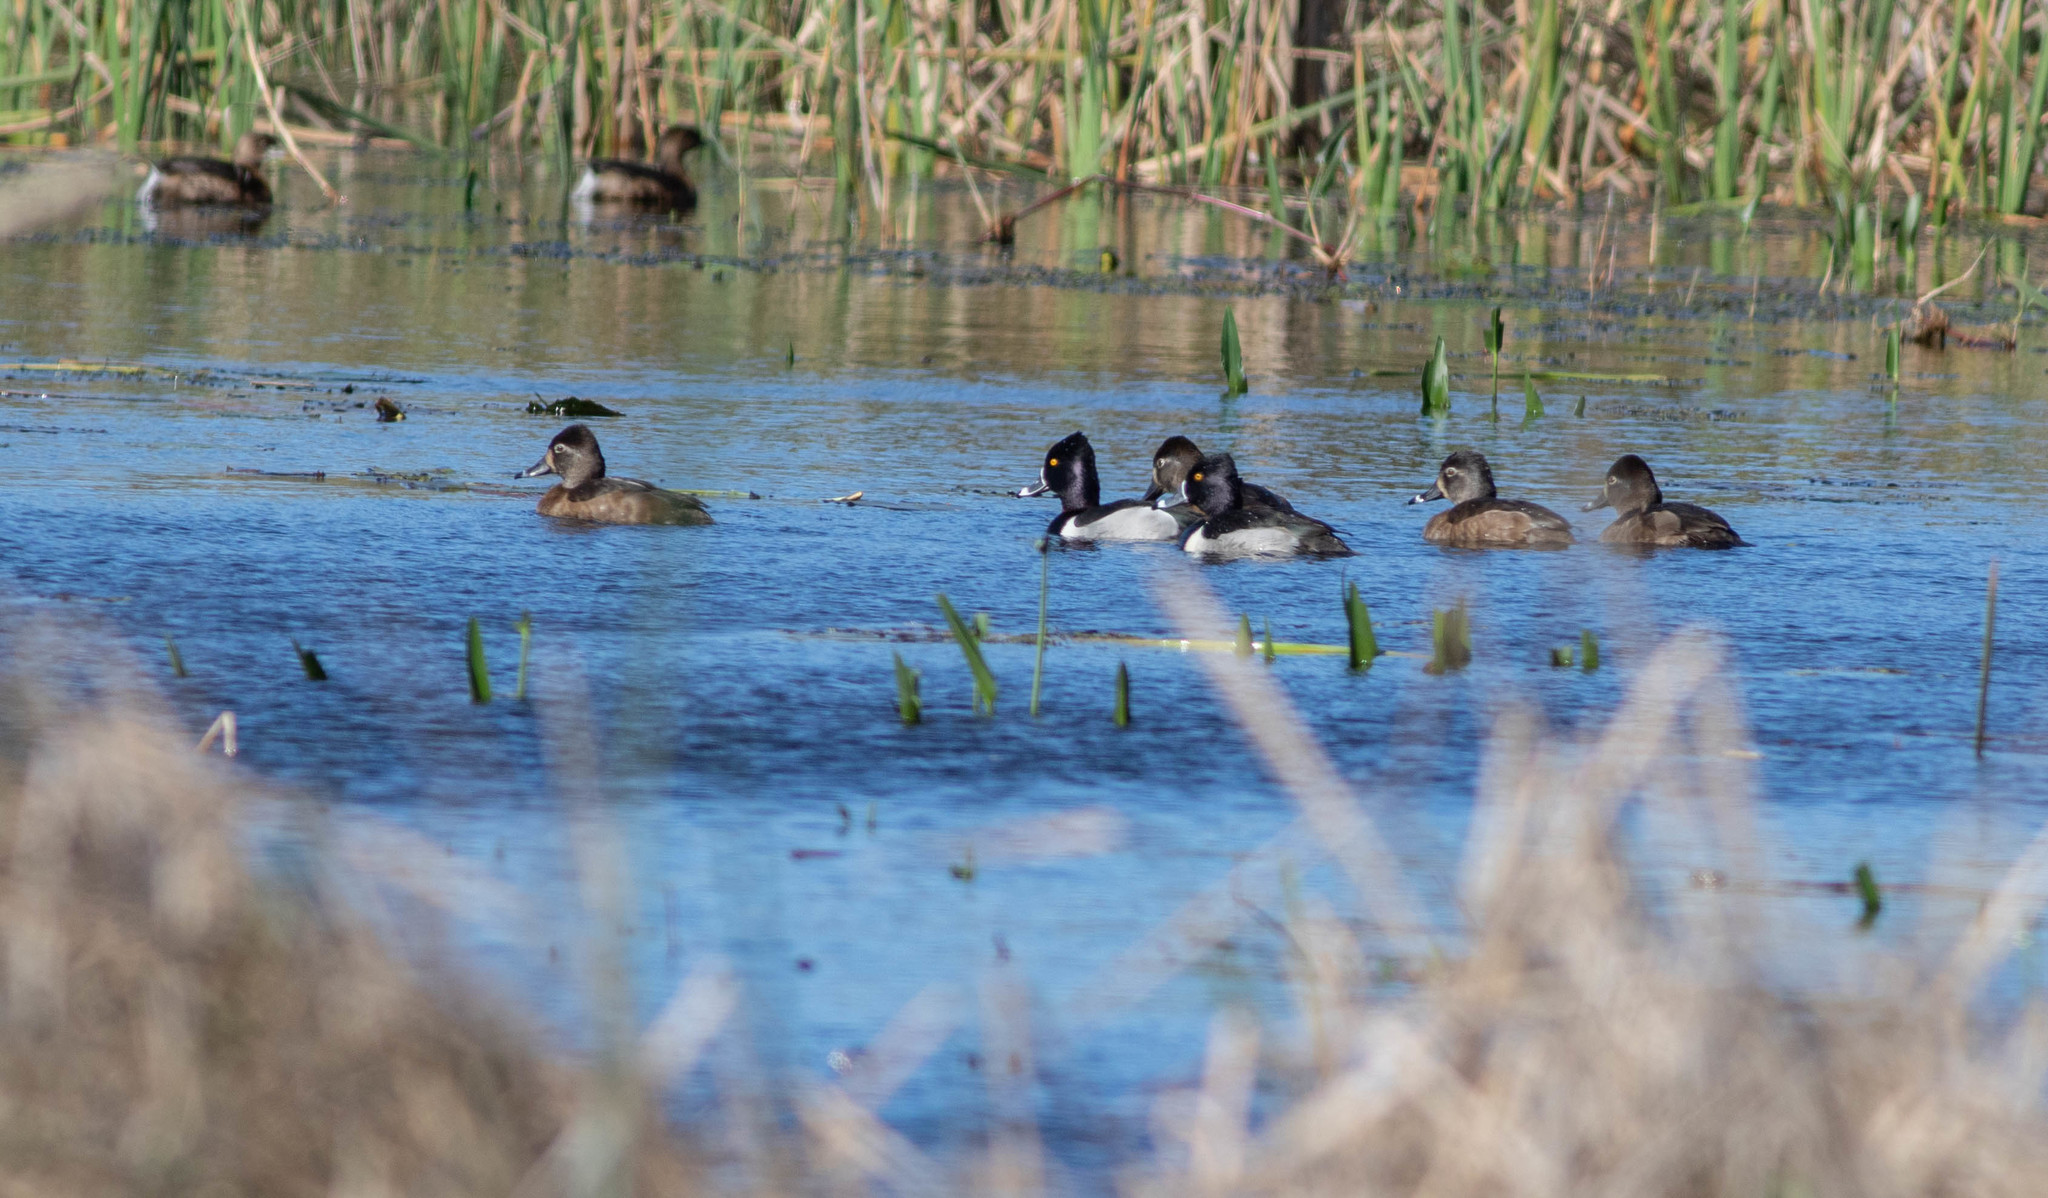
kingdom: Animalia
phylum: Chordata
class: Aves
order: Anseriformes
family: Anatidae
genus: Aythya
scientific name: Aythya collaris
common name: Ring-necked duck
